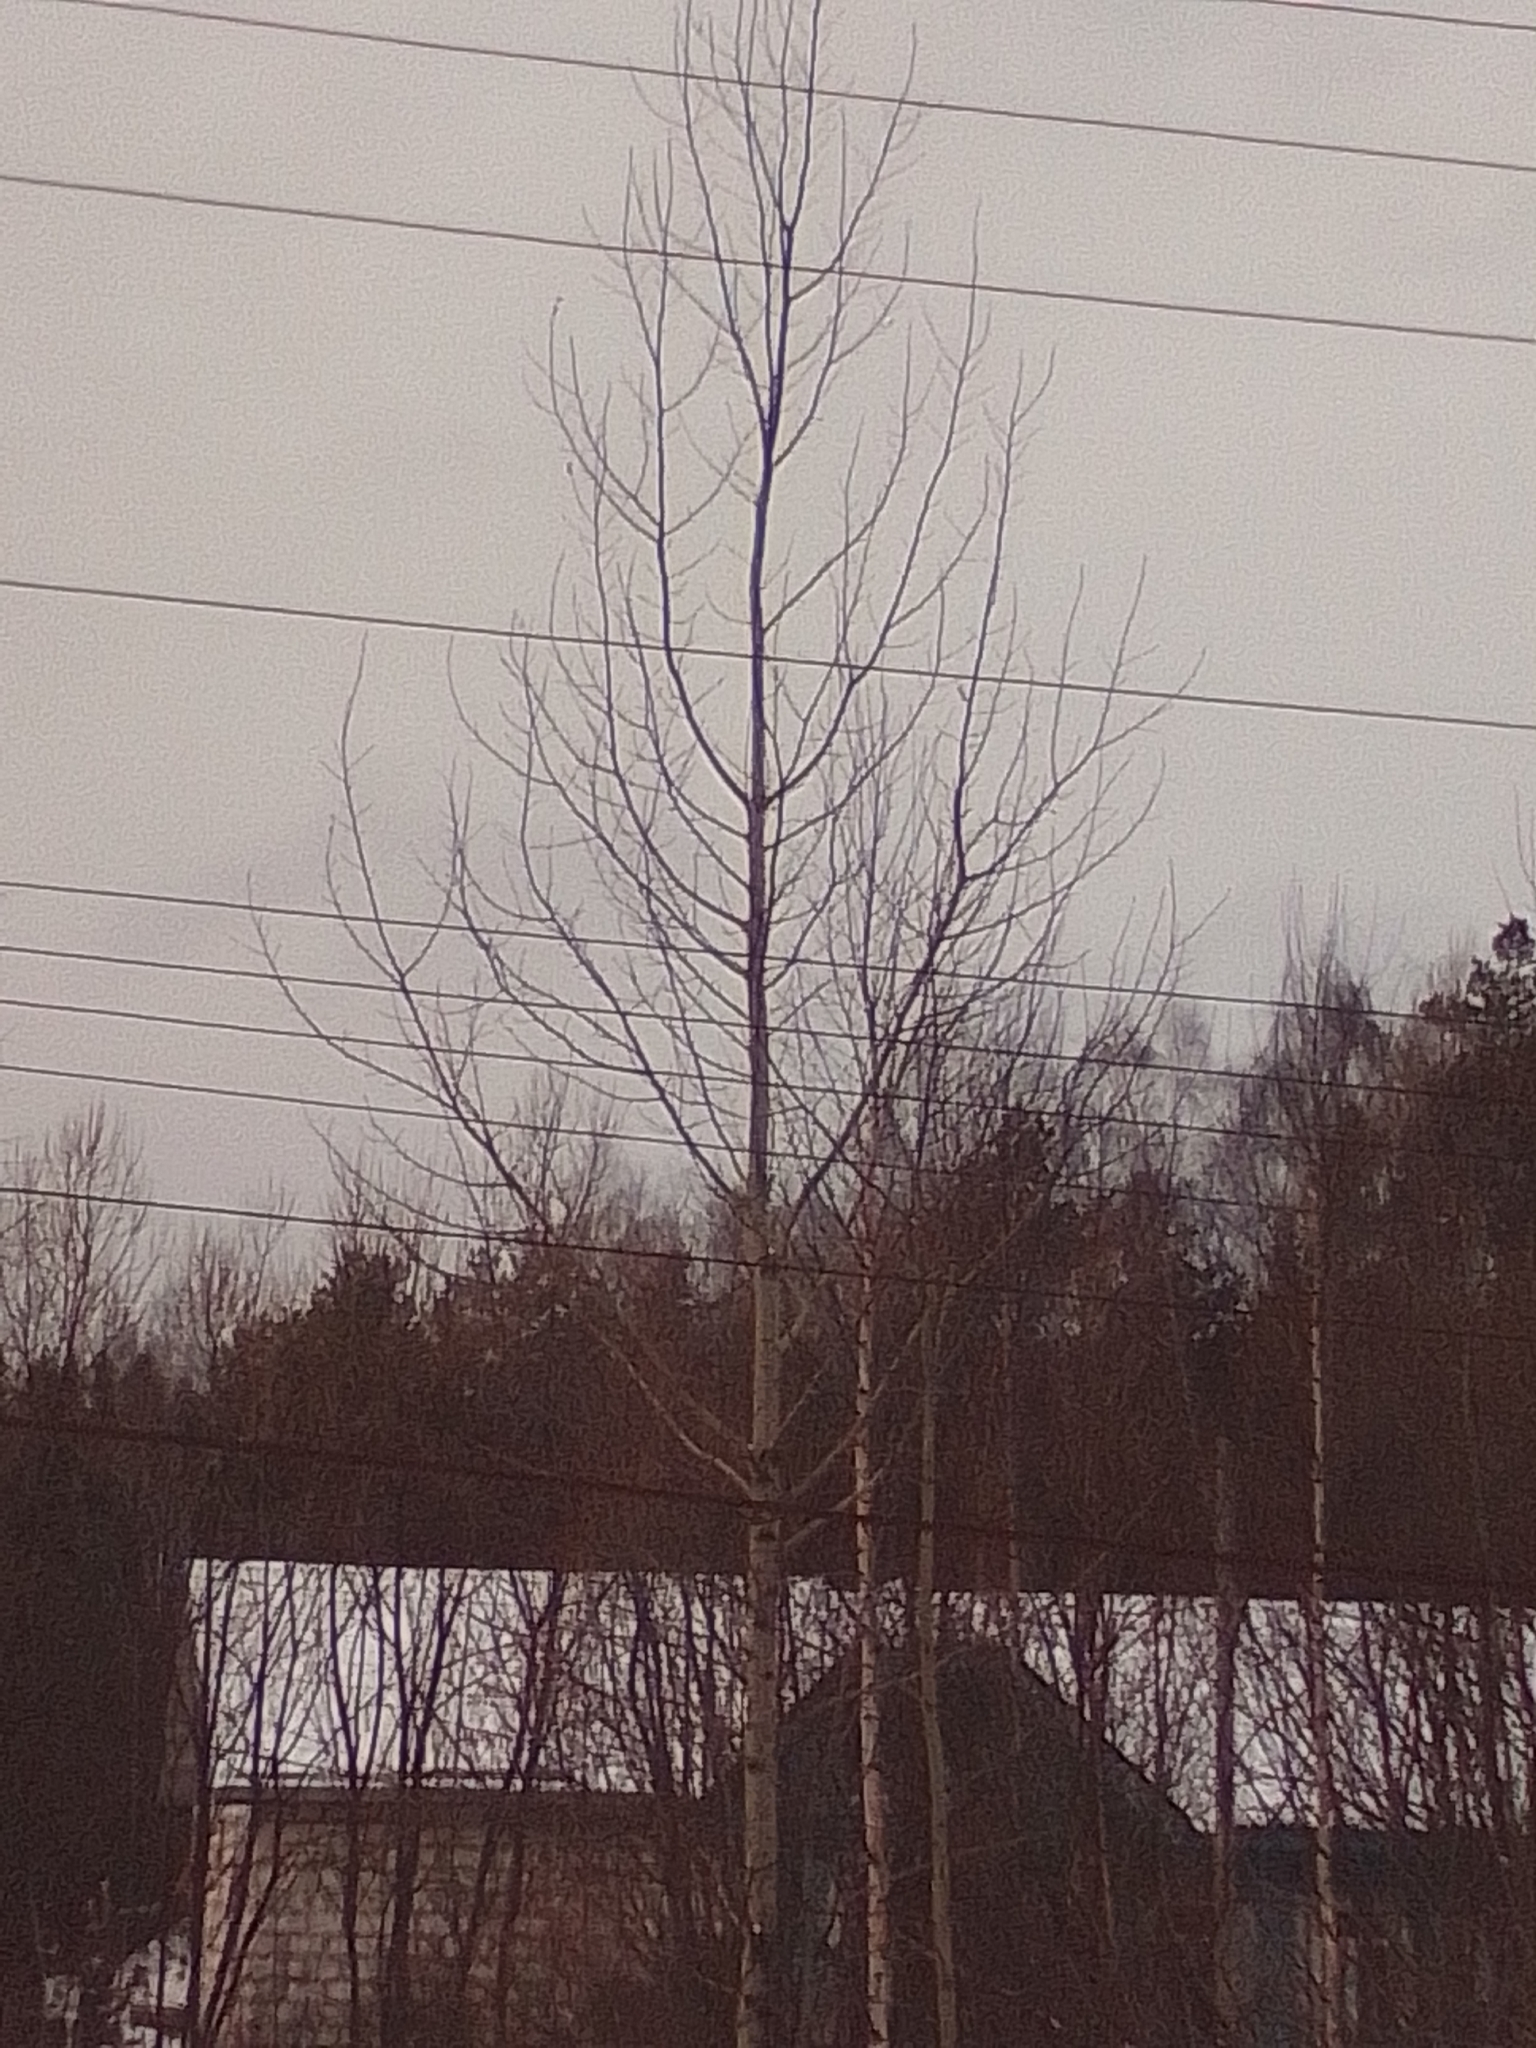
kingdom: Plantae
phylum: Tracheophyta
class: Magnoliopsida
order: Malpighiales
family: Salicaceae
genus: Populus
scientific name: Populus tremula
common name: European aspen
